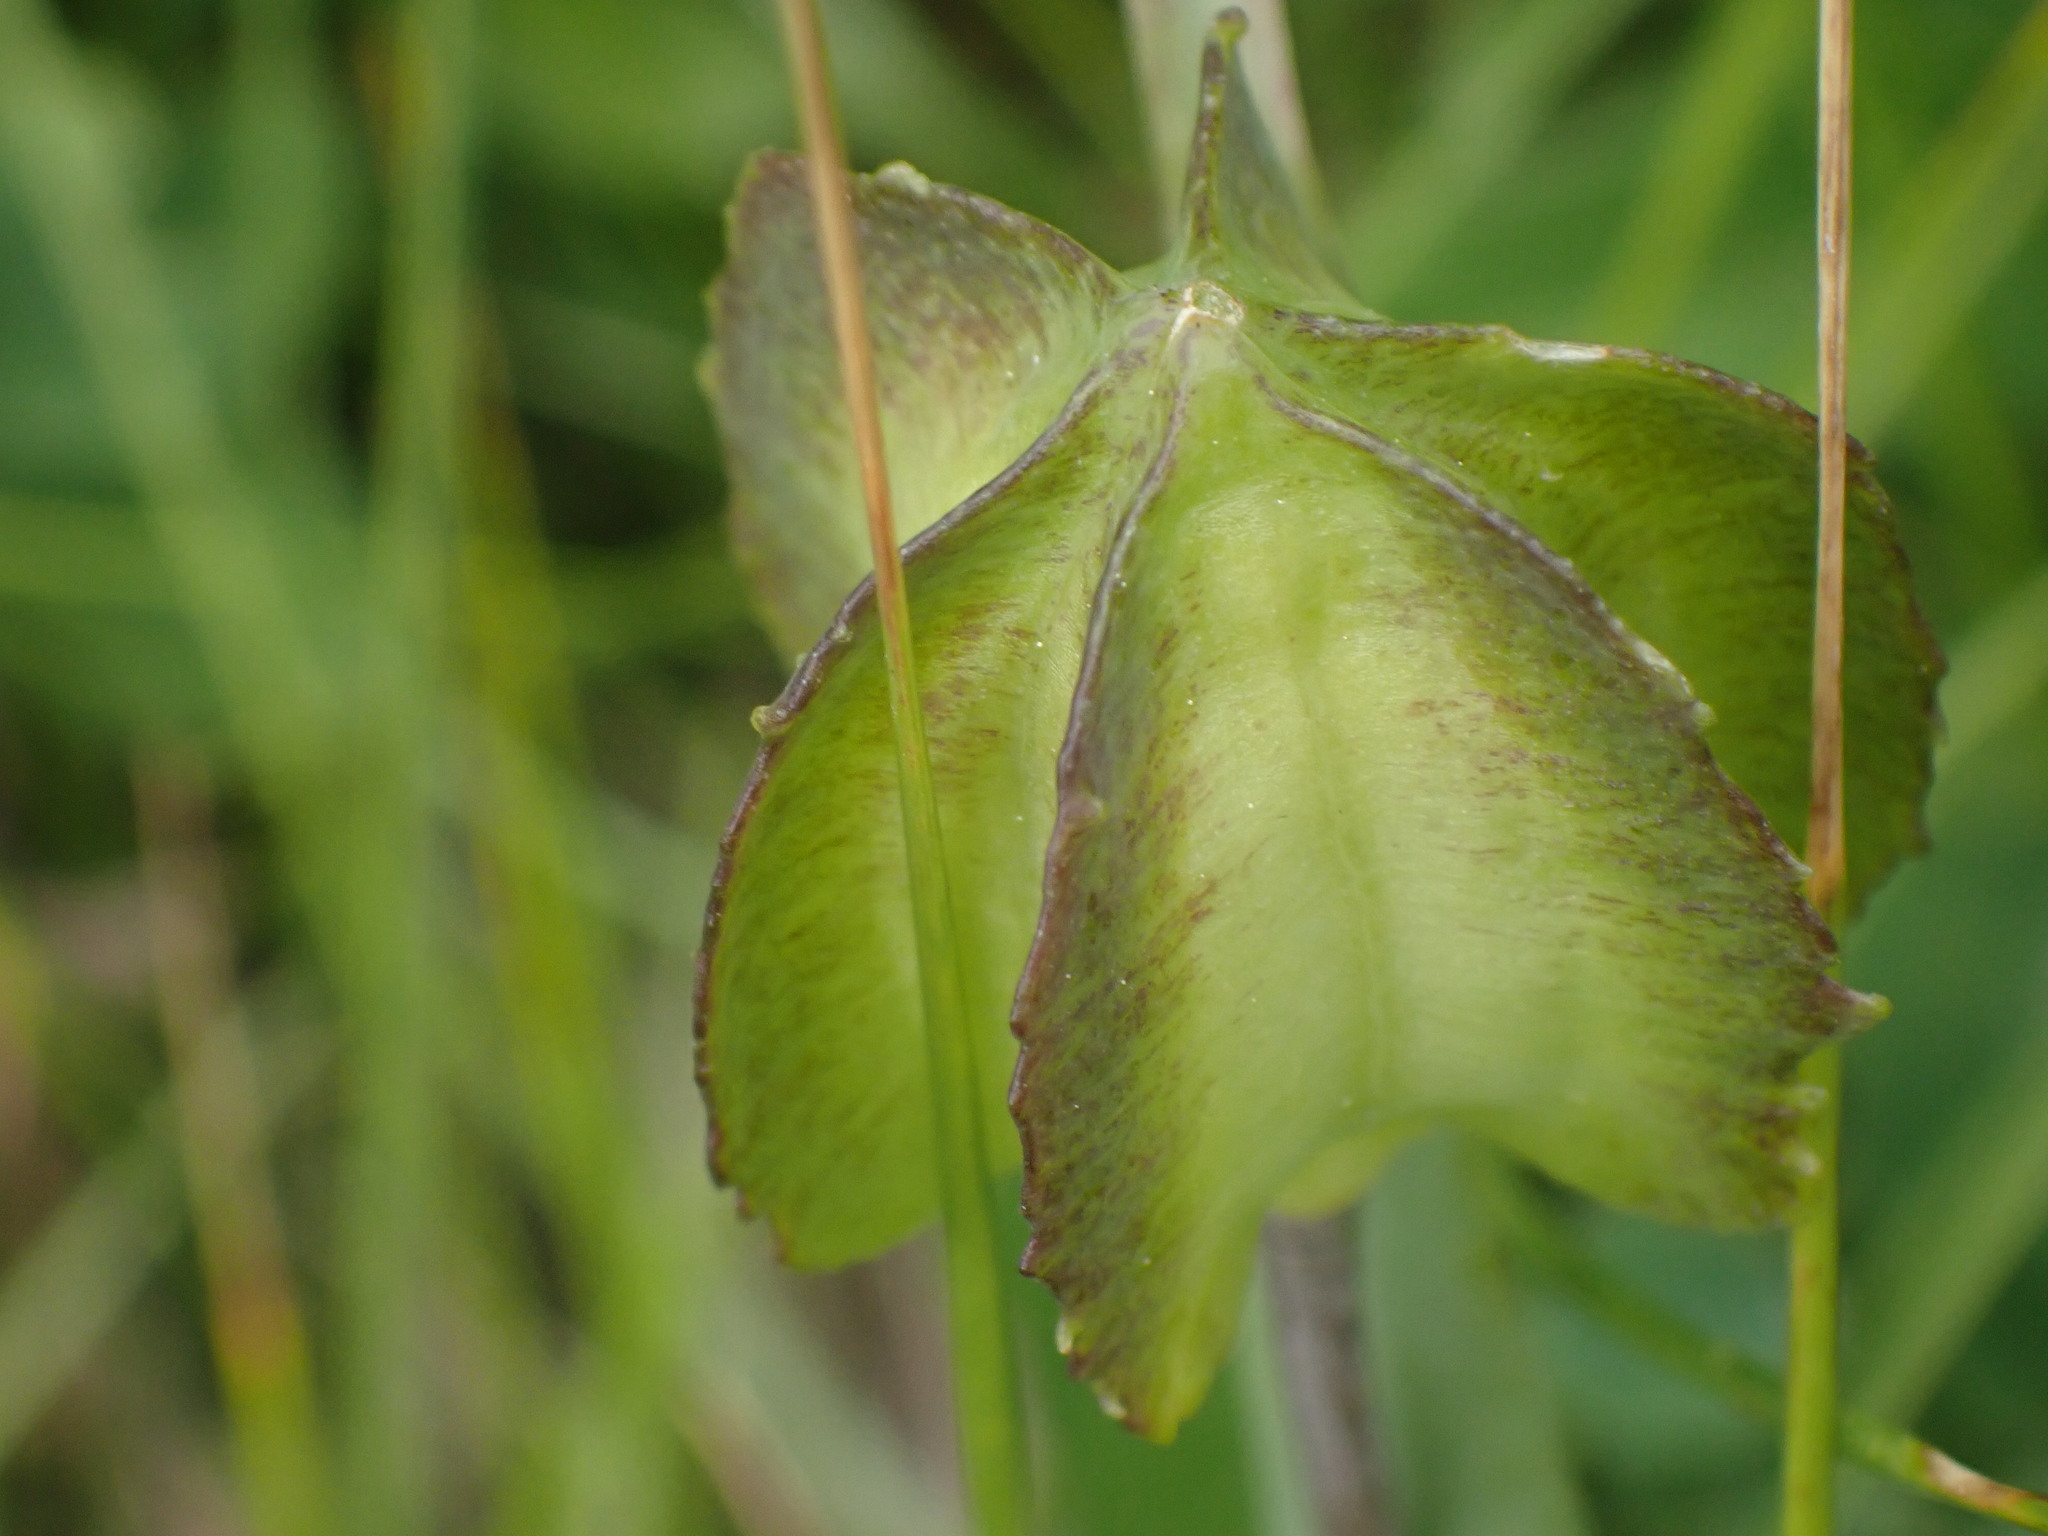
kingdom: Plantae
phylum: Tracheophyta
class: Liliopsida
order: Liliales
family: Liliaceae
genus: Fritillaria
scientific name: Fritillaria affinis
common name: Ojai fritillary
